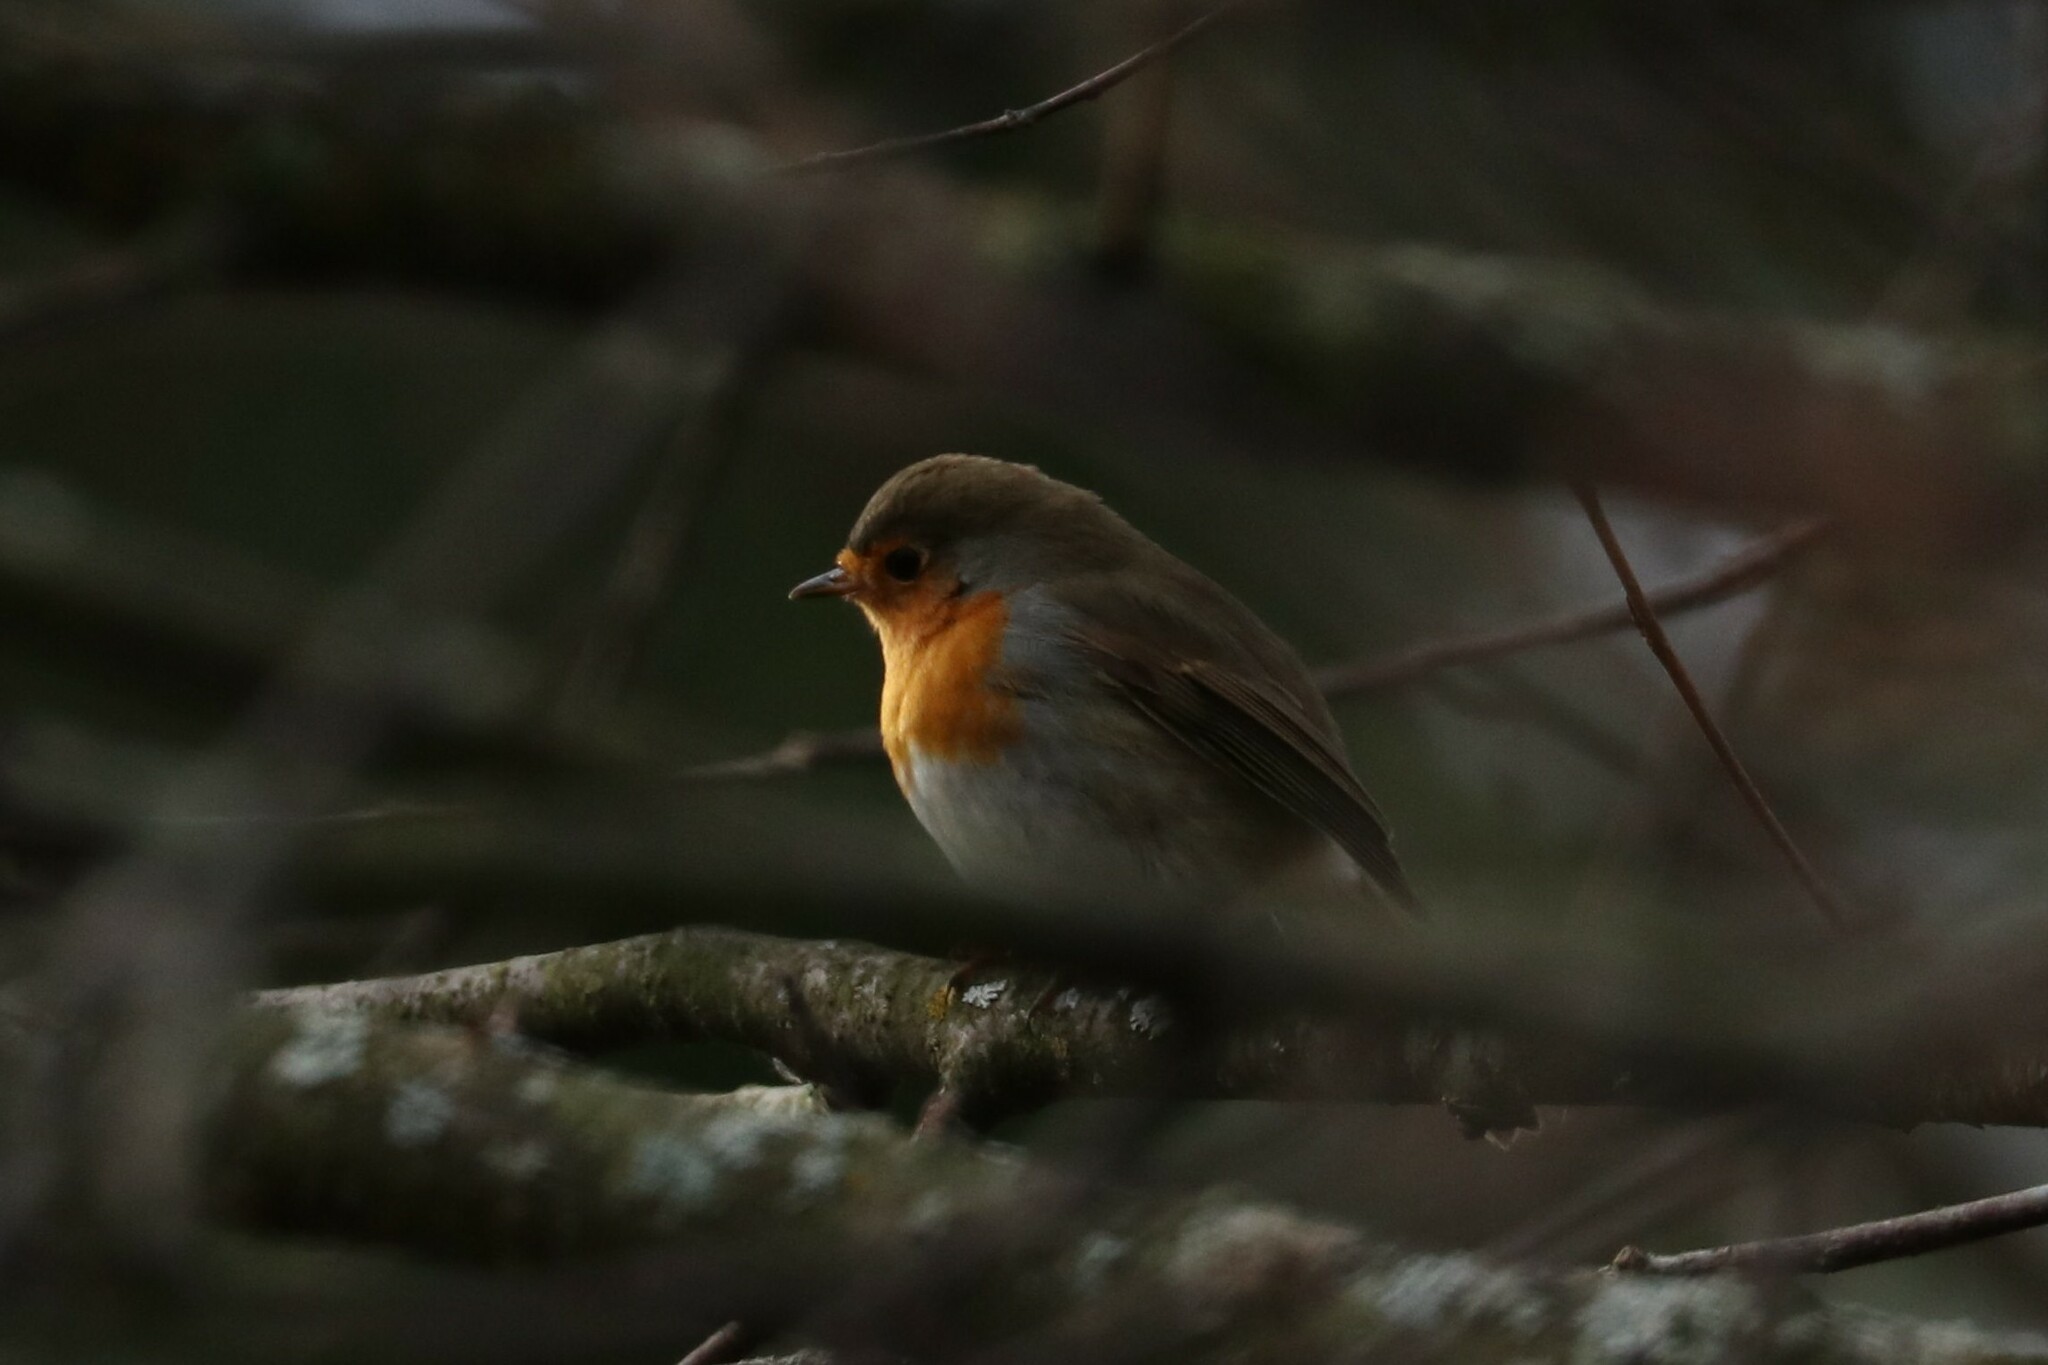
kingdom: Animalia
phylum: Chordata
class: Aves
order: Passeriformes
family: Muscicapidae
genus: Erithacus
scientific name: Erithacus rubecula
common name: European robin
